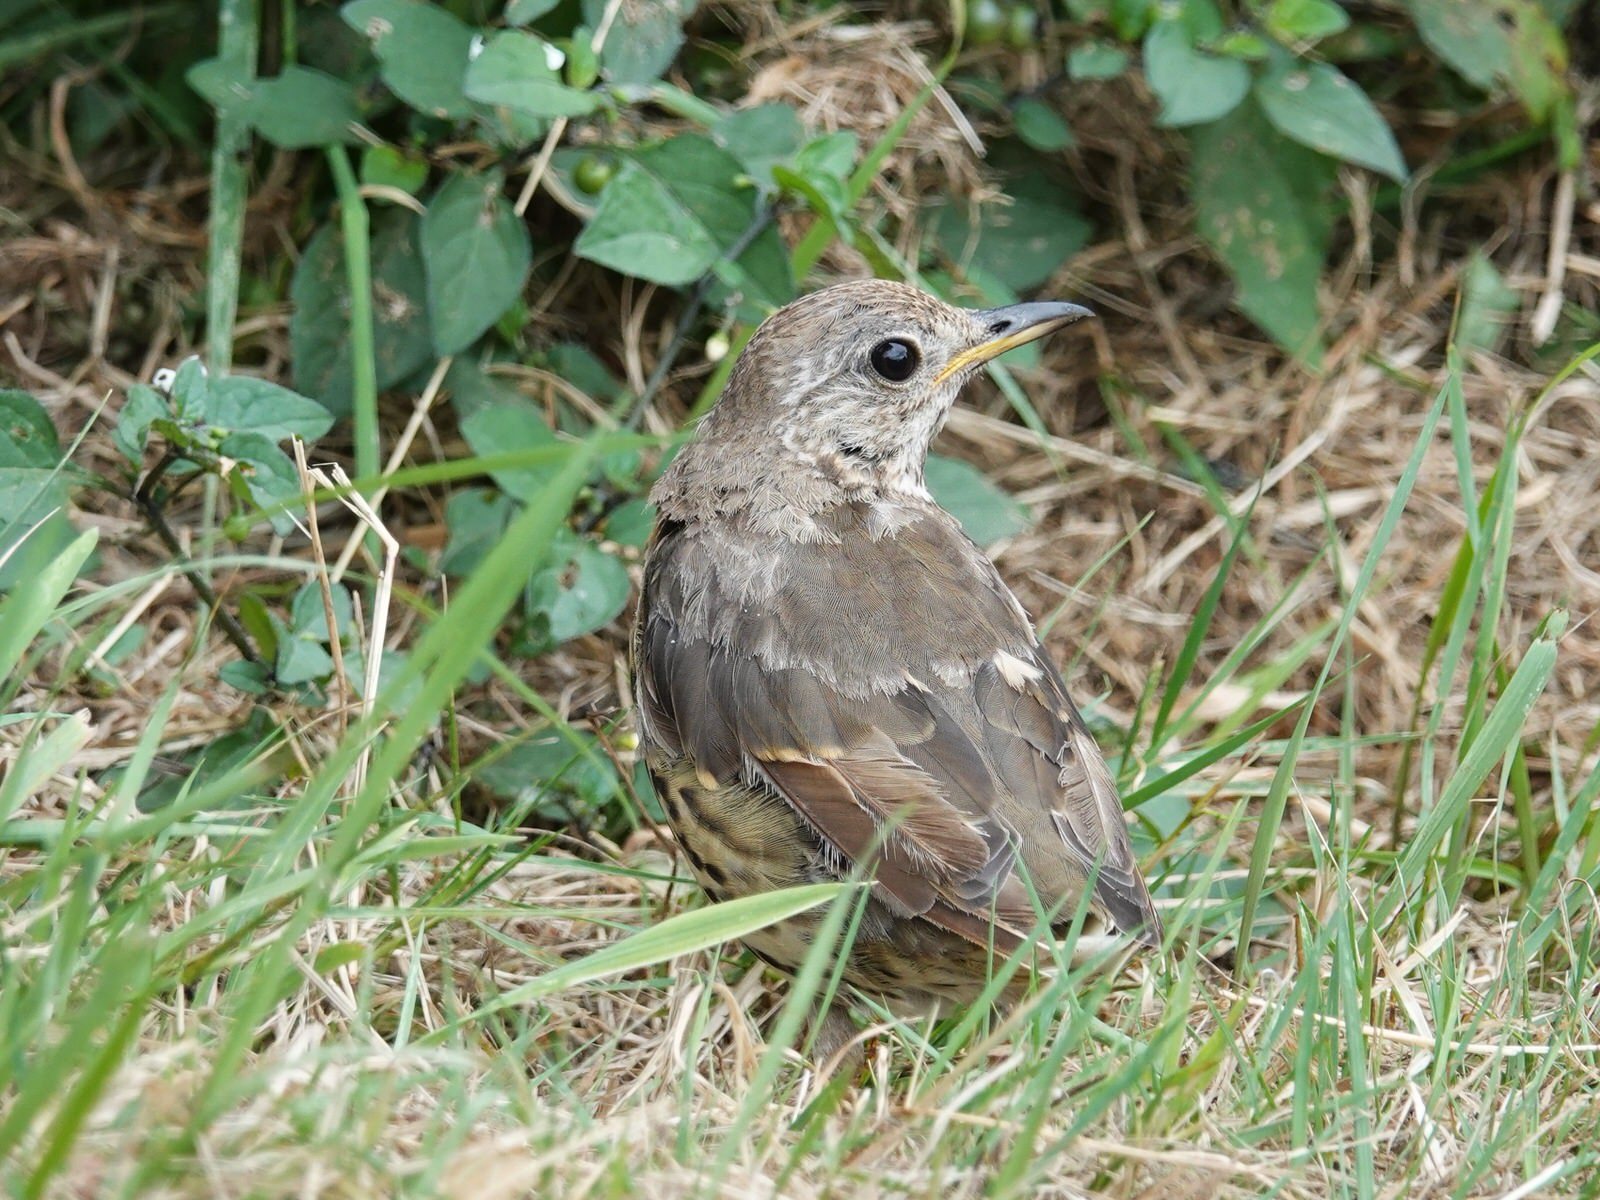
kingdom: Animalia
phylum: Chordata
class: Aves
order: Passeriformes
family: Turdidae
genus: Turdus
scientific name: Turdus philomelos
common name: Song thrush
